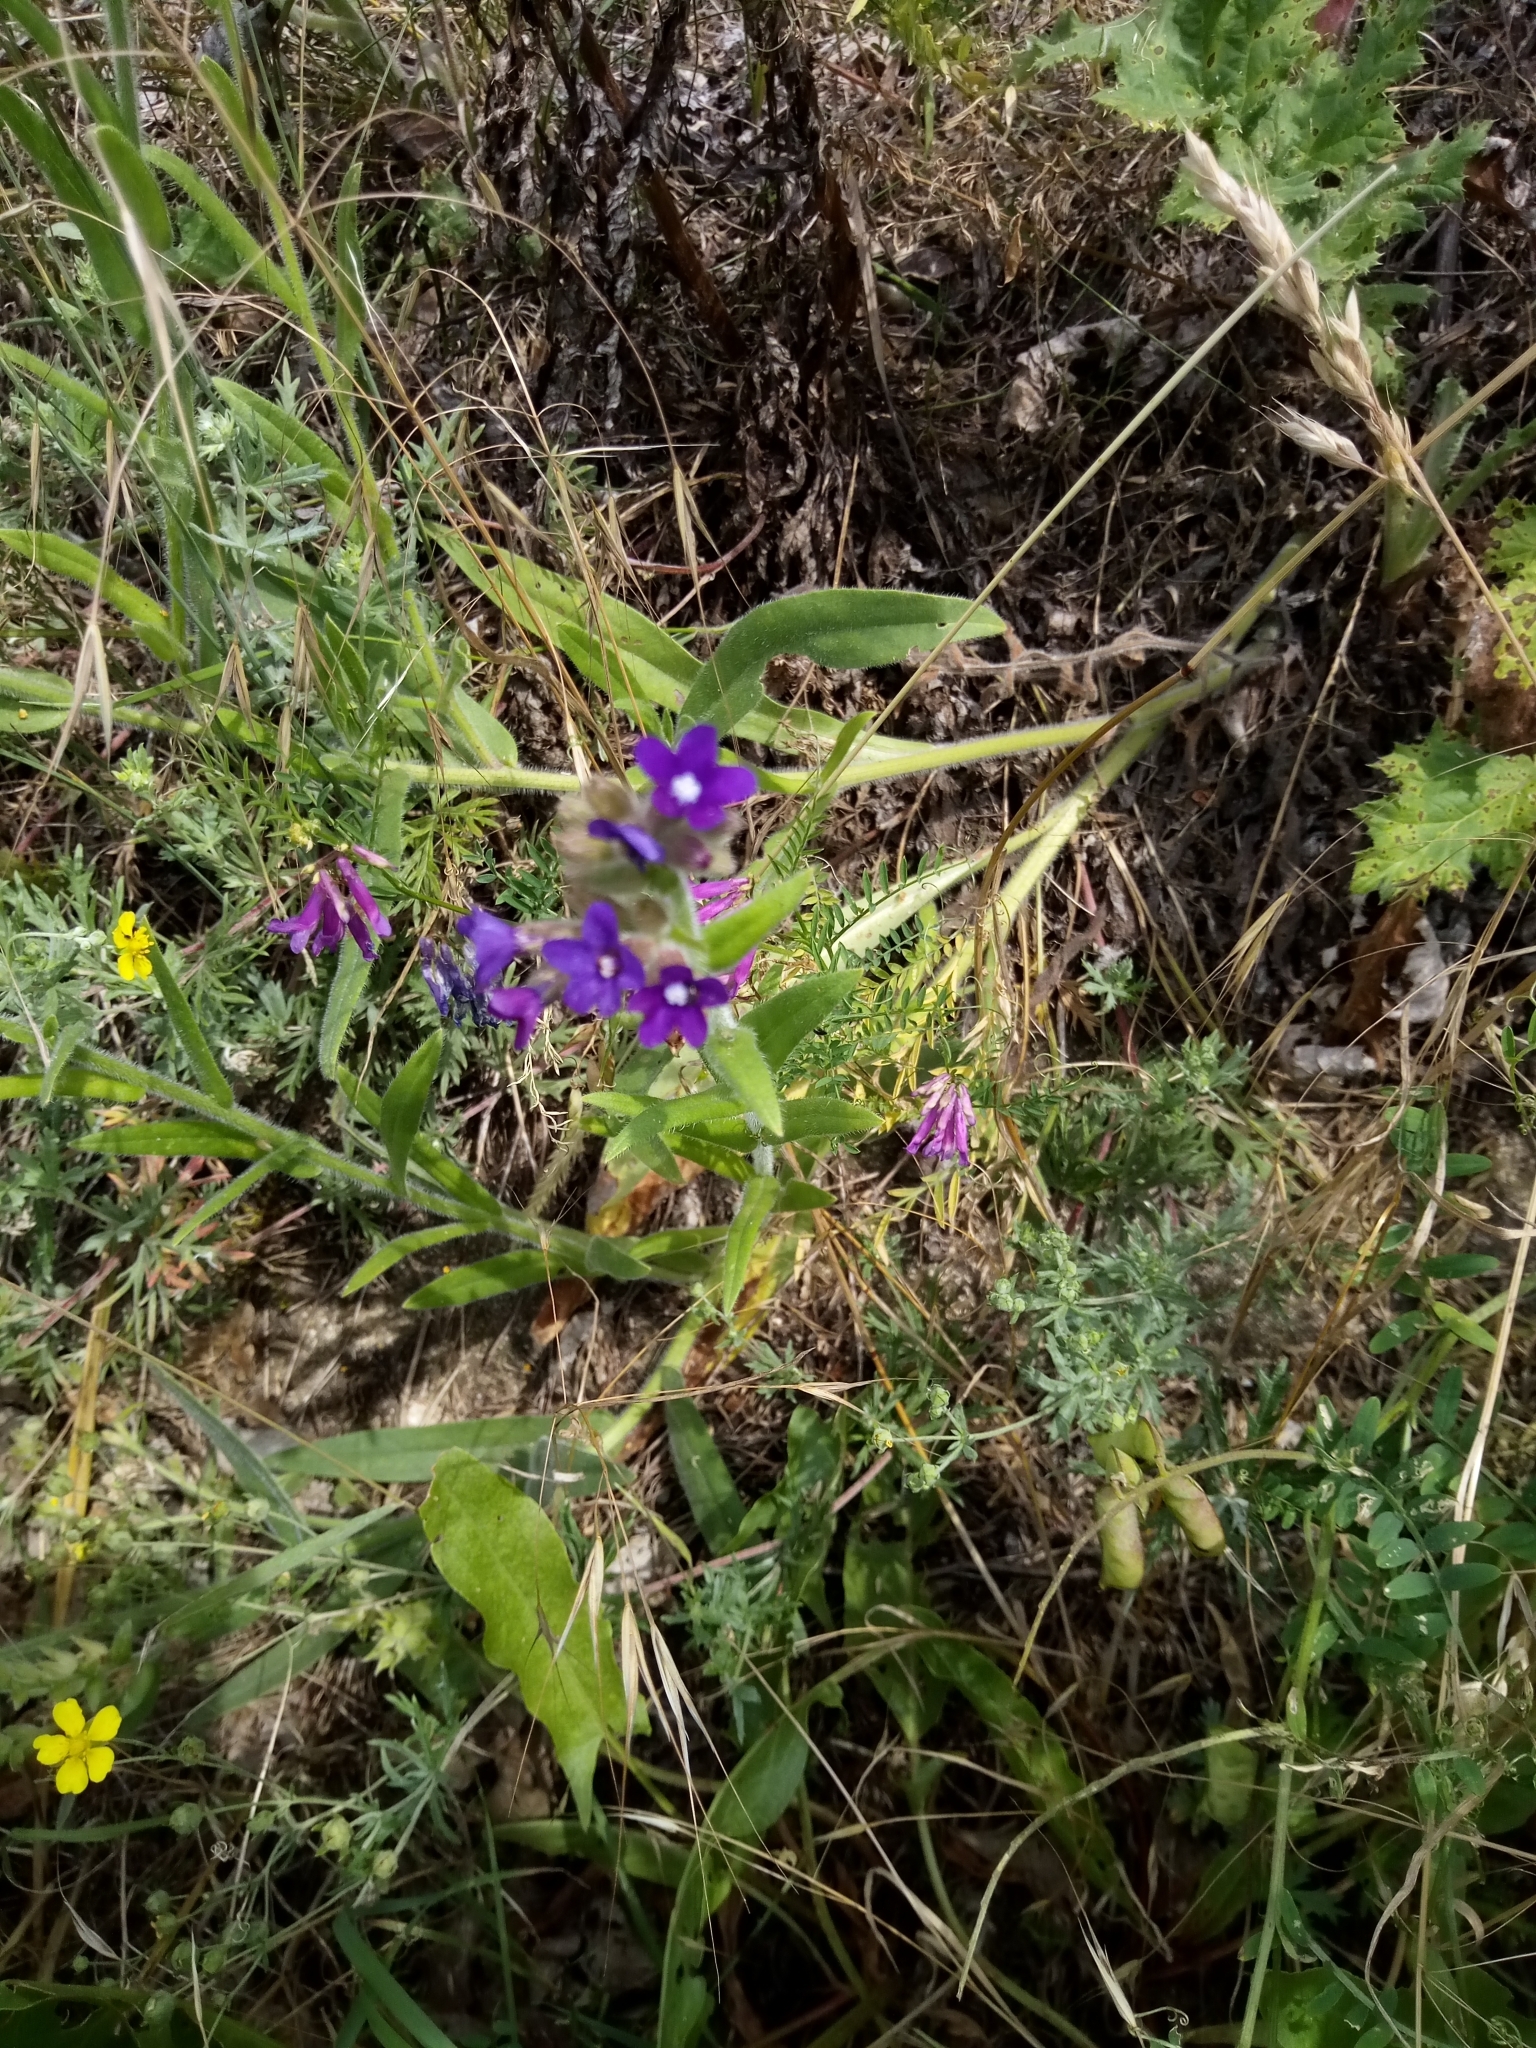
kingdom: Plantae
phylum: Tracheophyta
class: Magnoliopsida
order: Boraginales
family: Boraginaceae
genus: Anchusa
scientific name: Anchusa officinalis
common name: Alkanet
